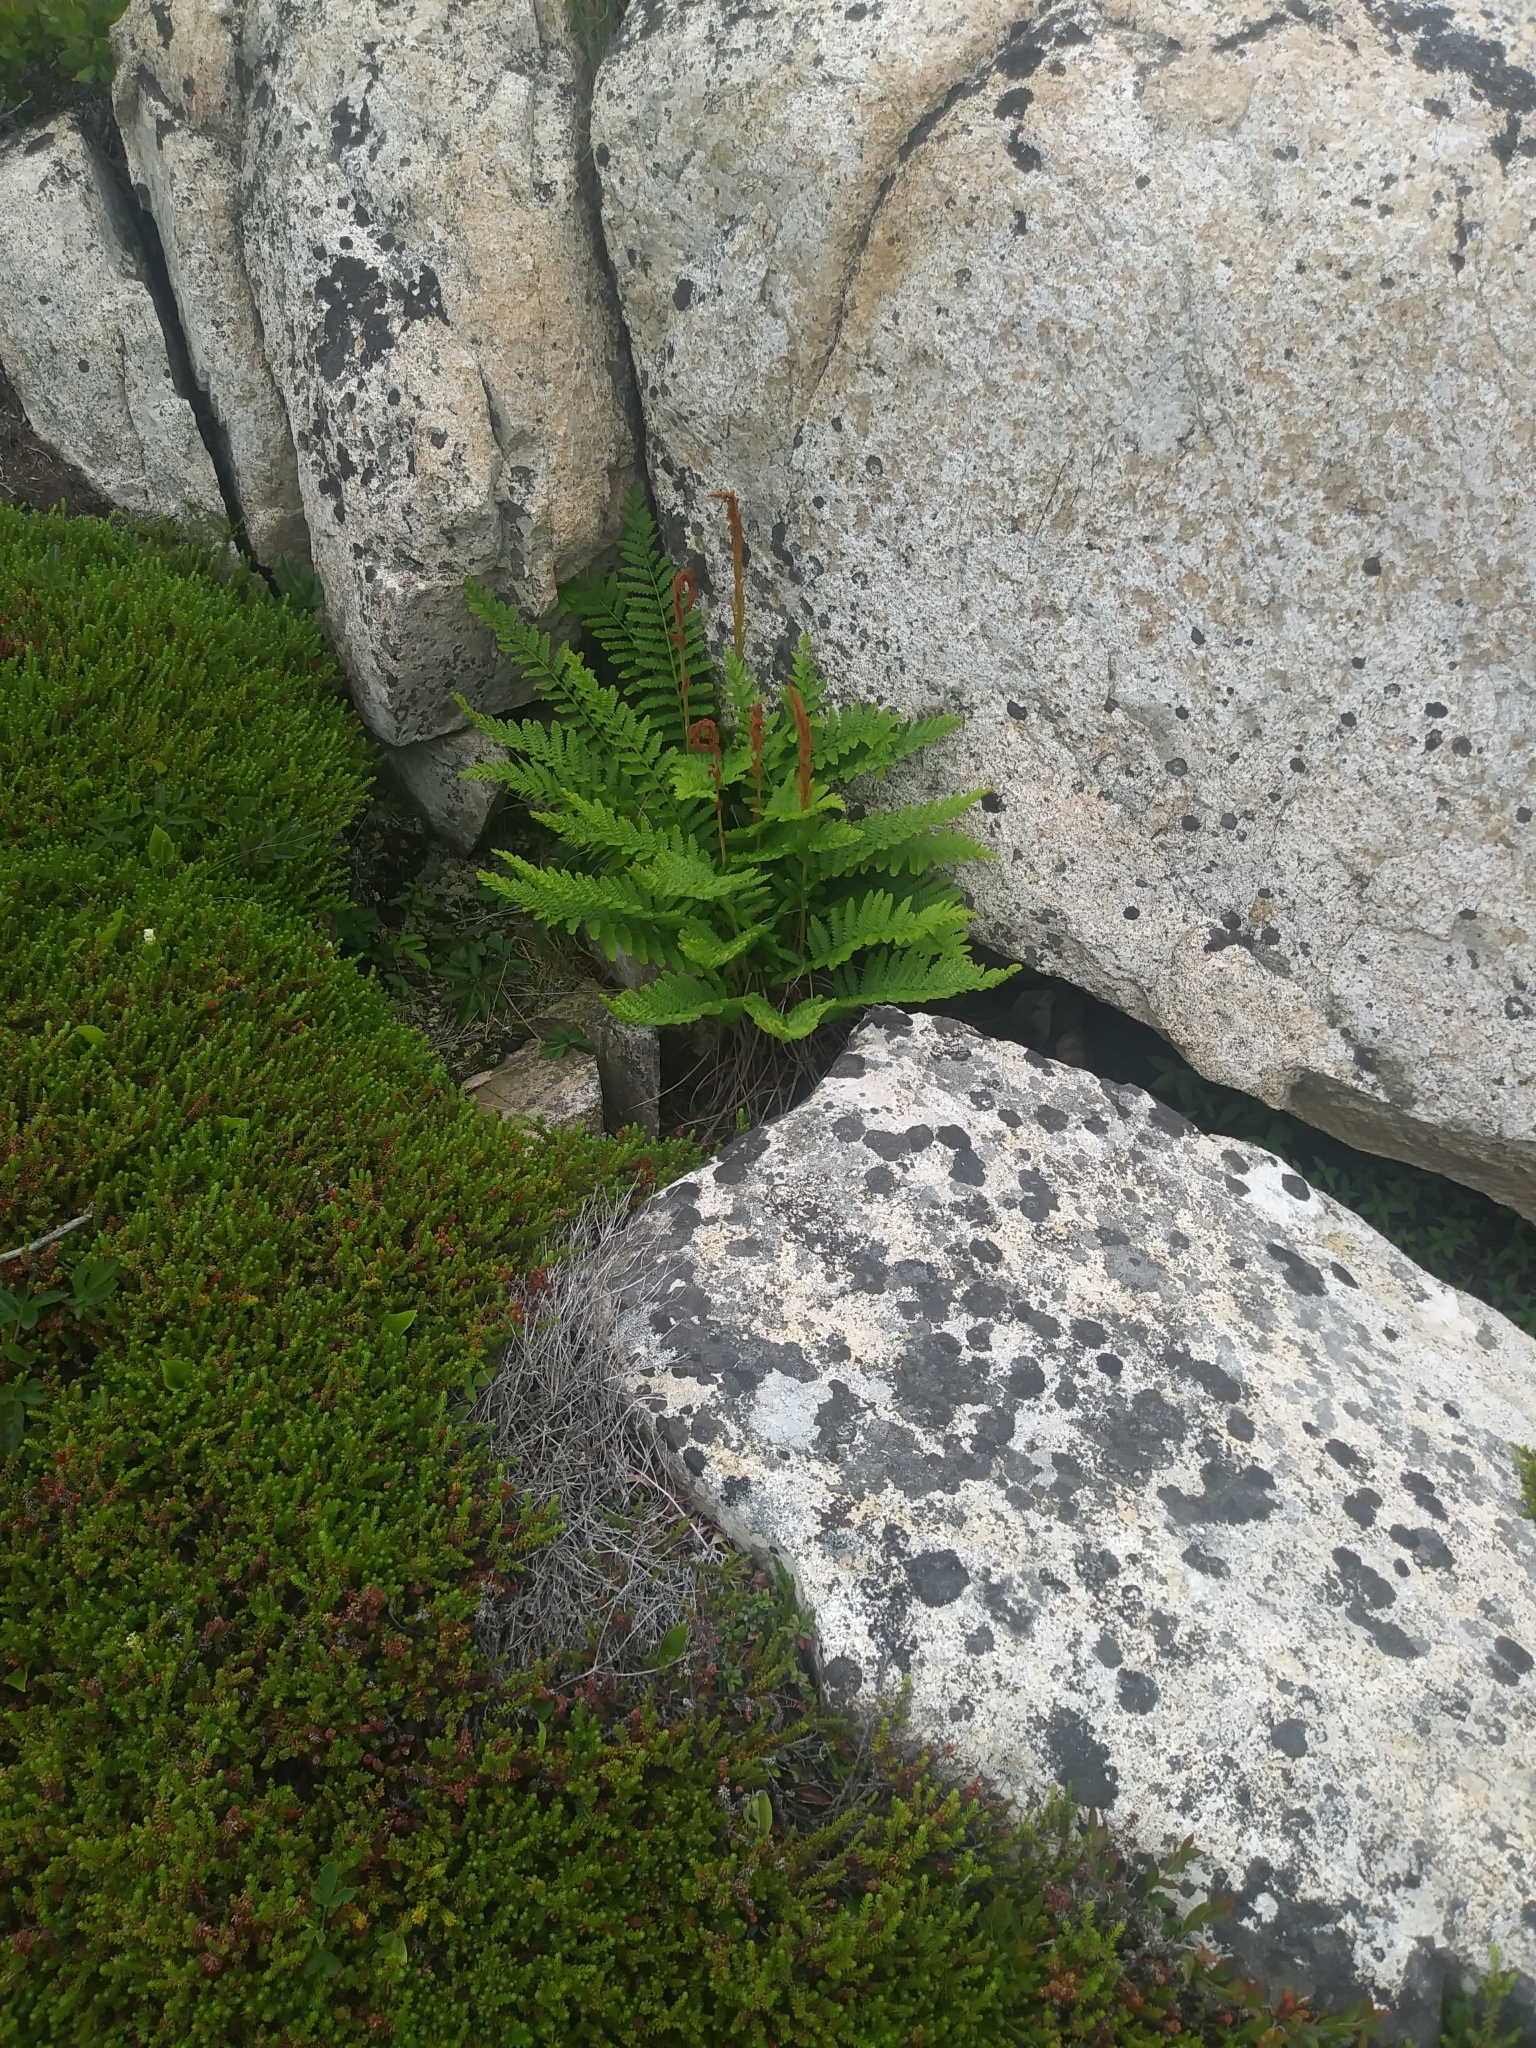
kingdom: Plantae
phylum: Tracheophyta
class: Polypodiopsida
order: Osmundales
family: Osmundaceae
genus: Osmundastrum
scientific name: Osmundastrum cinnamomeum
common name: Cinnamon fern
